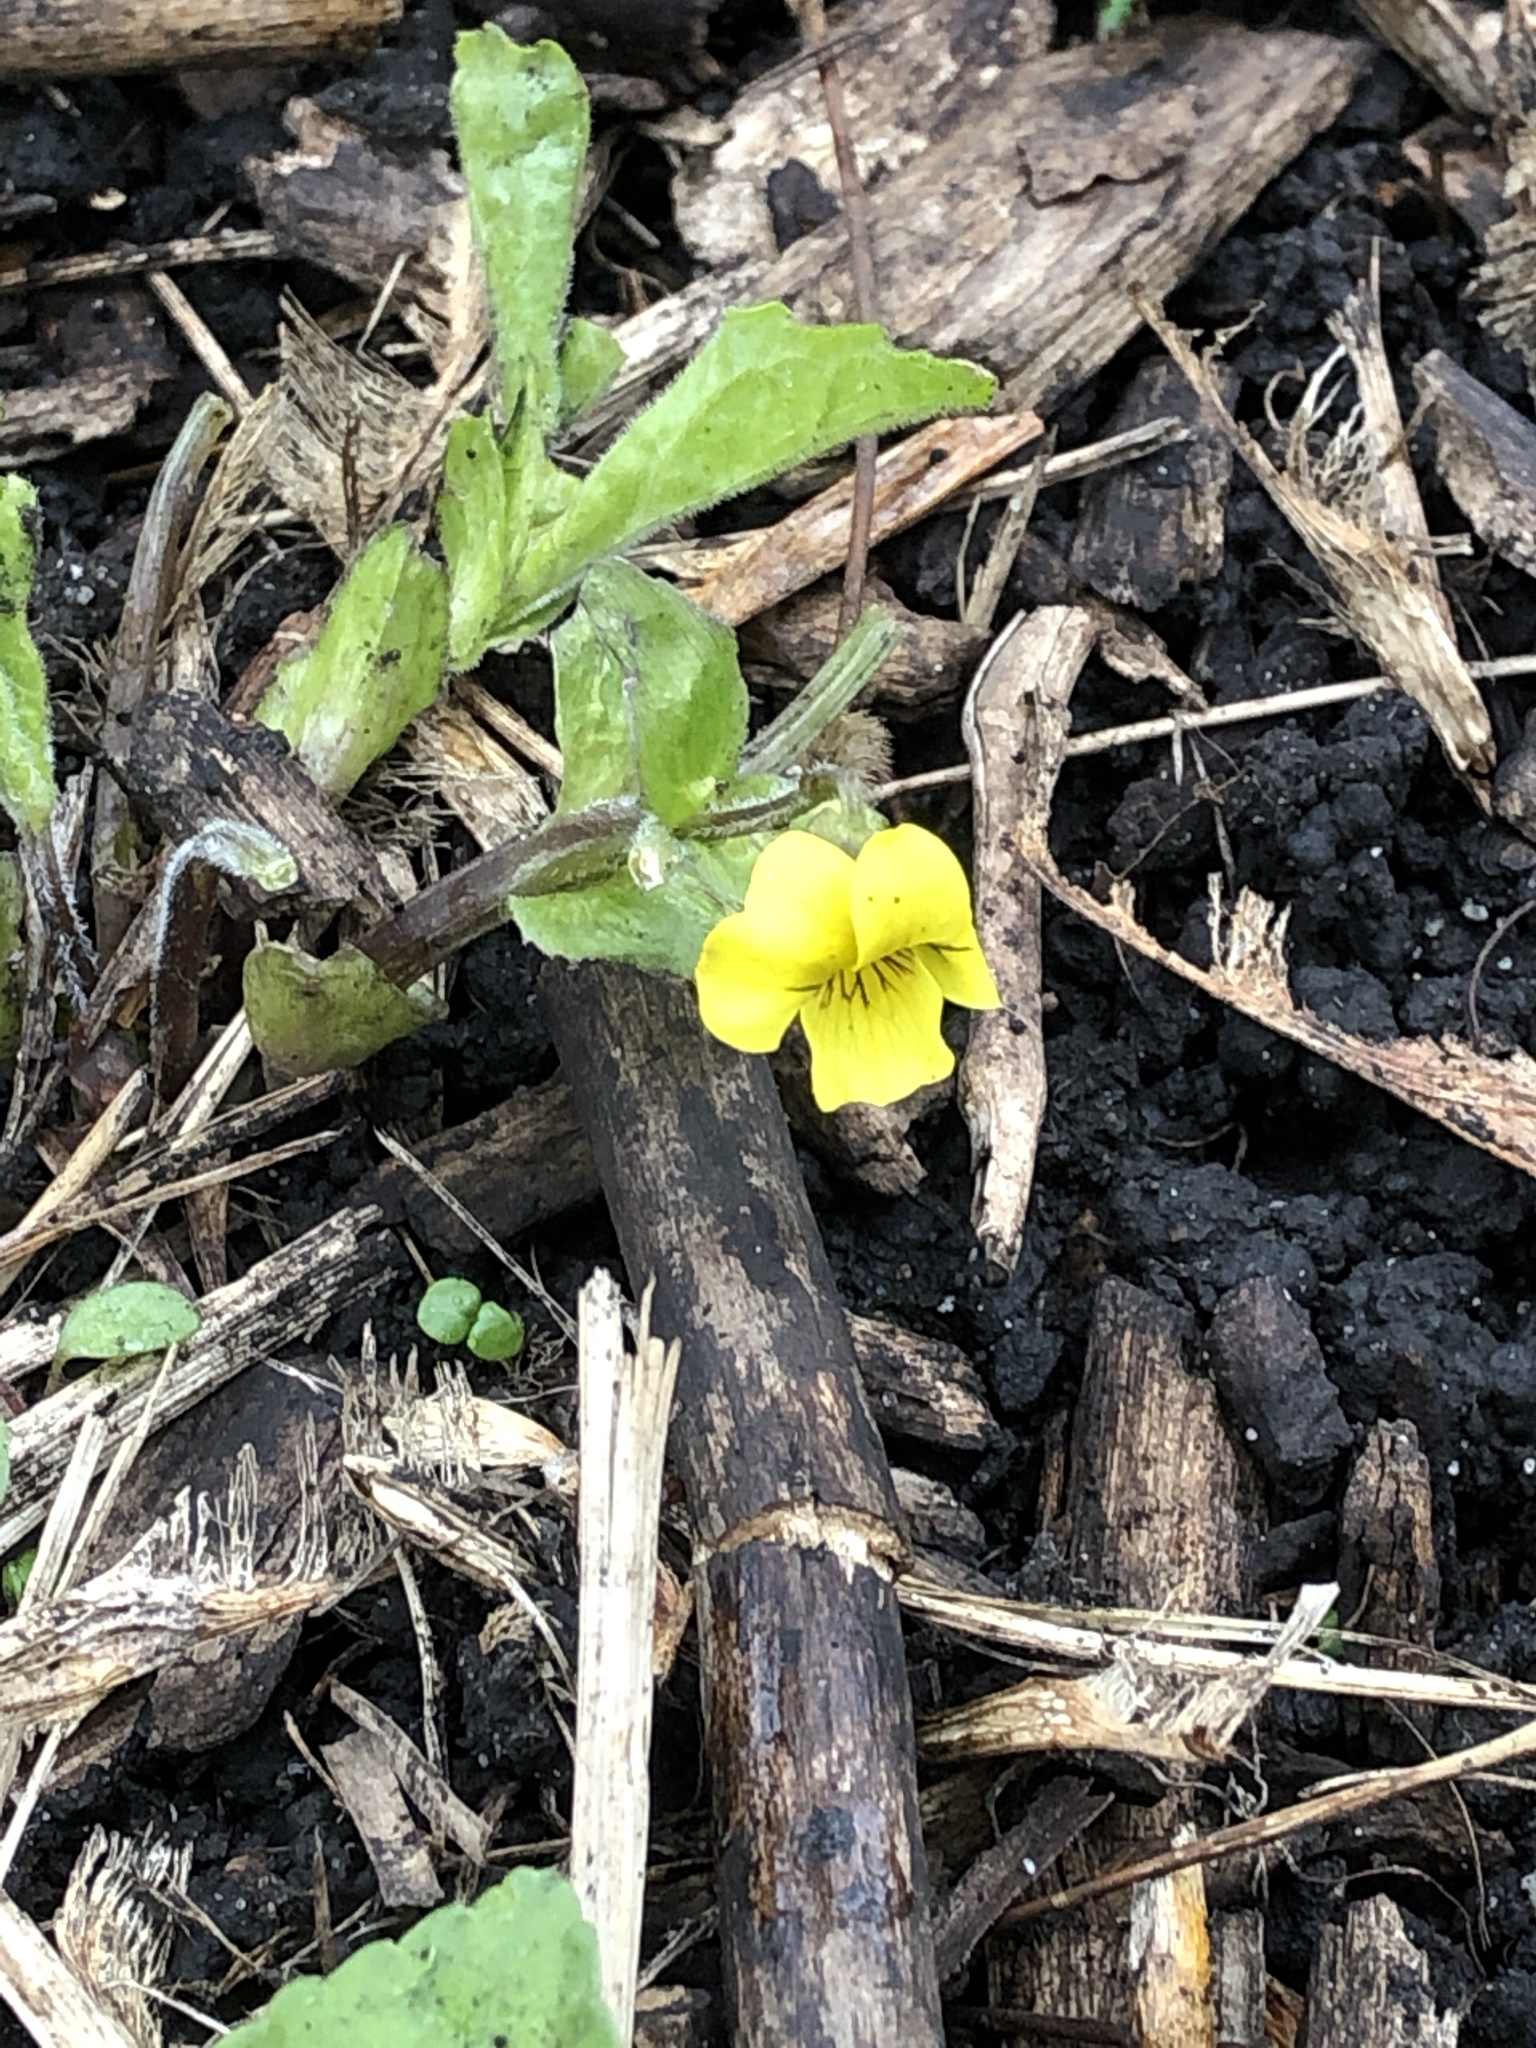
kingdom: Plantae
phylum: Tracheophyta
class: Magnoliopsida
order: Malpighiales
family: Violaceae
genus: Viola
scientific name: Viola eriocarpa
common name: Smooth yellow violet
